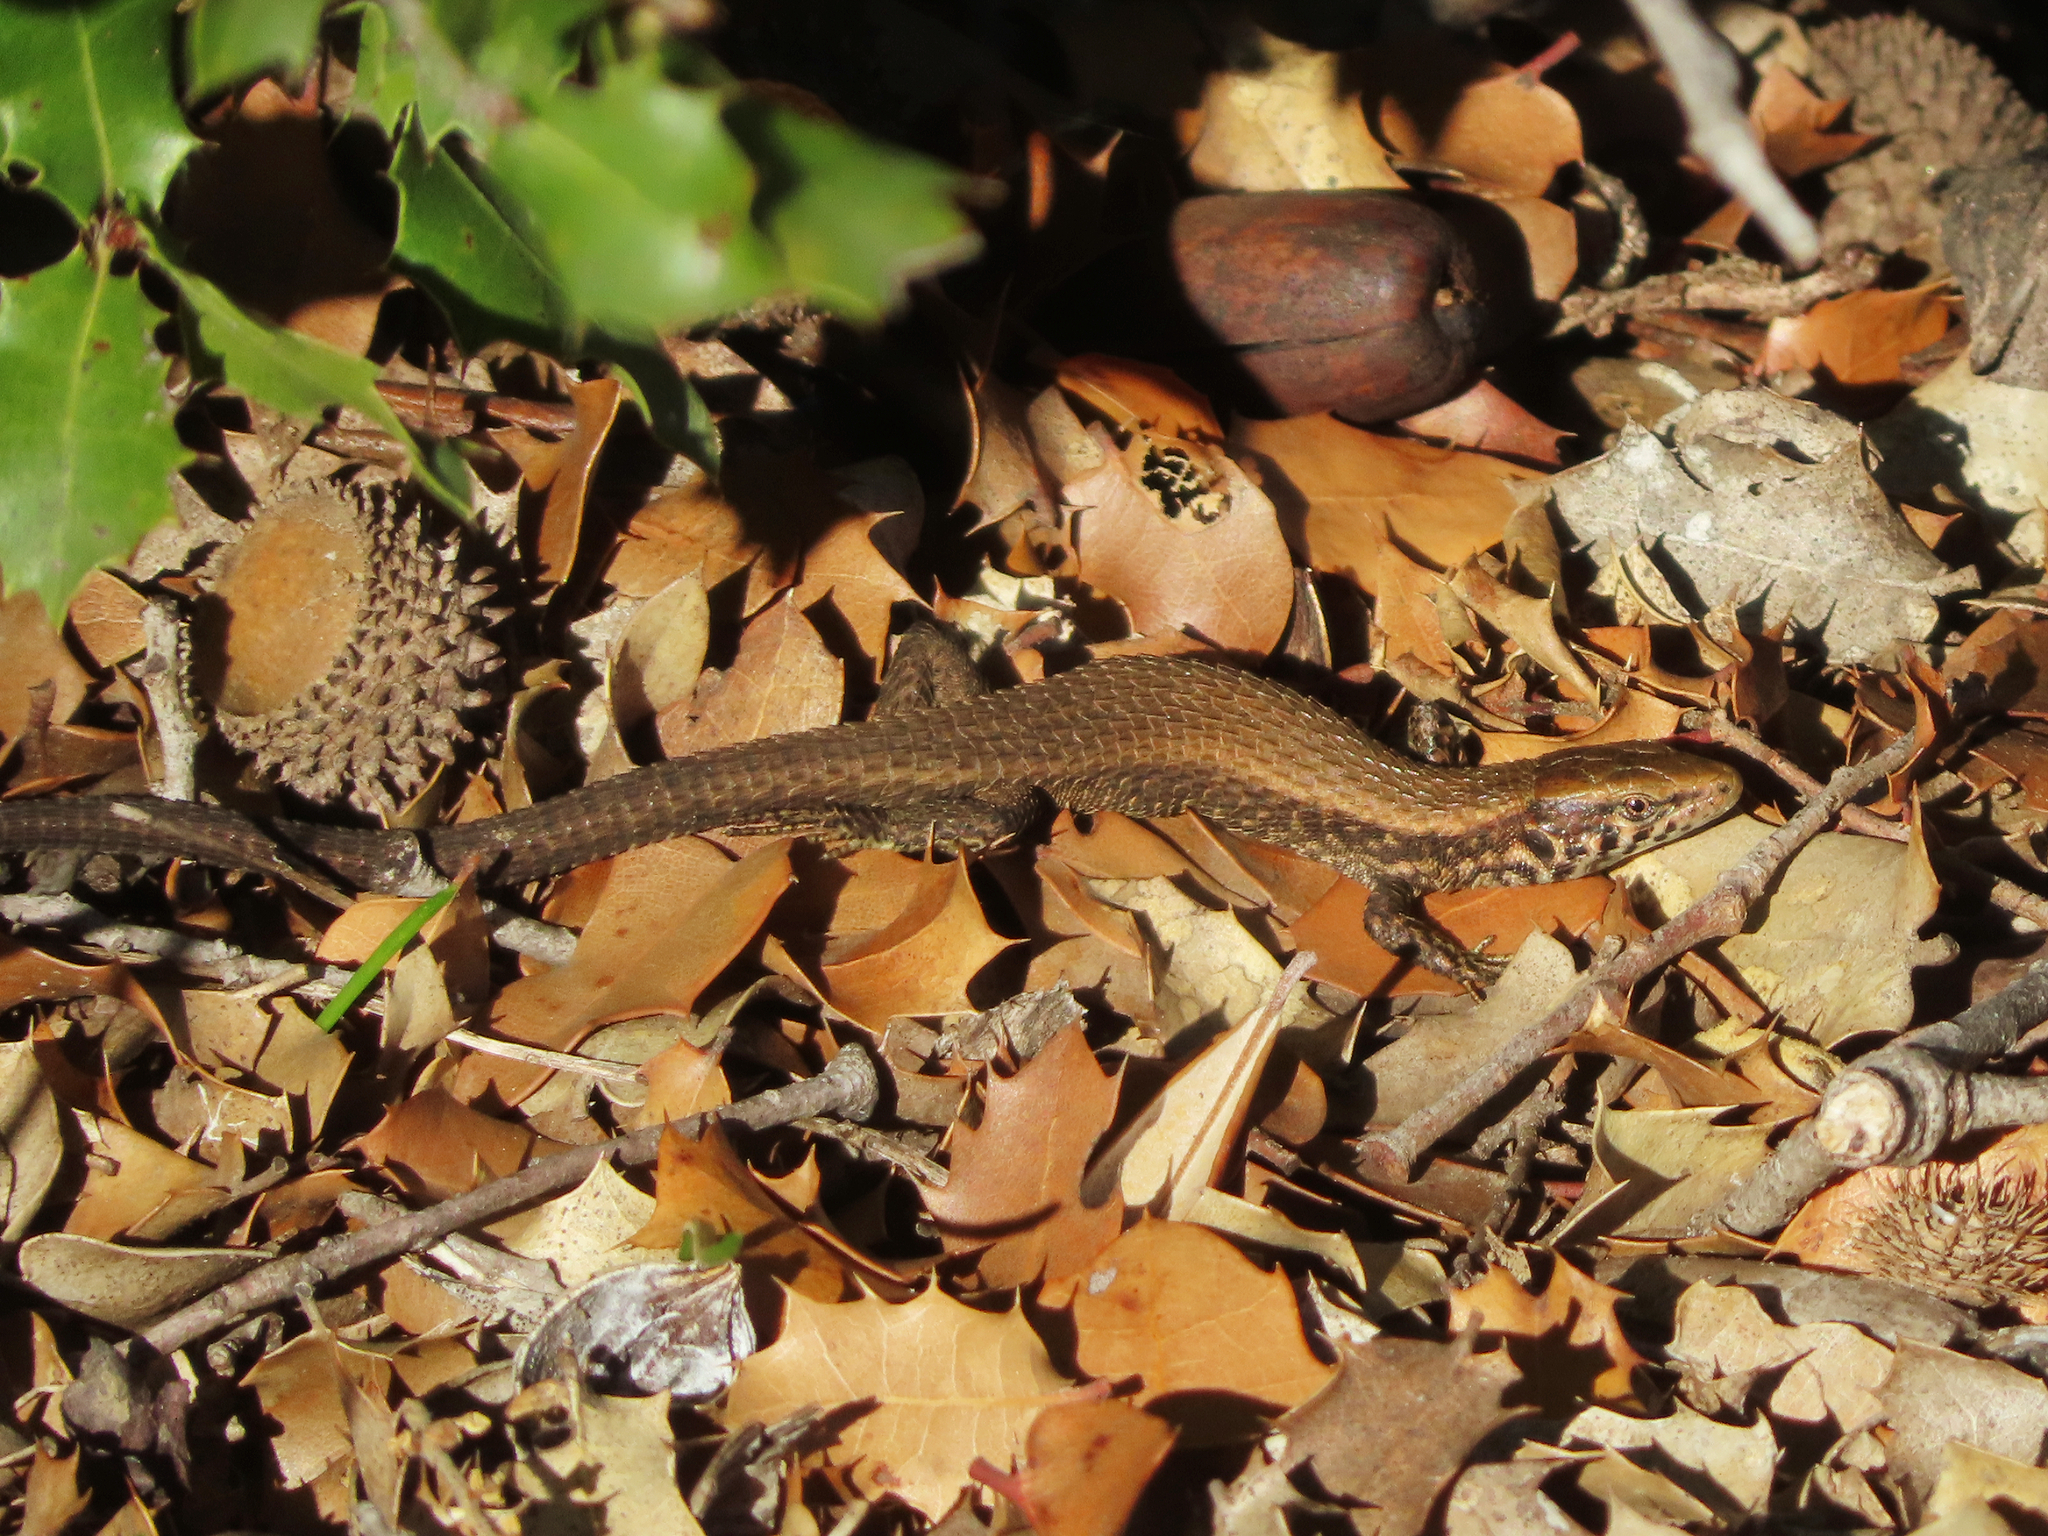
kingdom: Animalia
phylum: Chordata
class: Squamata
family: Lacertidae
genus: Algyroides
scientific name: Algyroides moreoticus
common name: Greek algyroides
